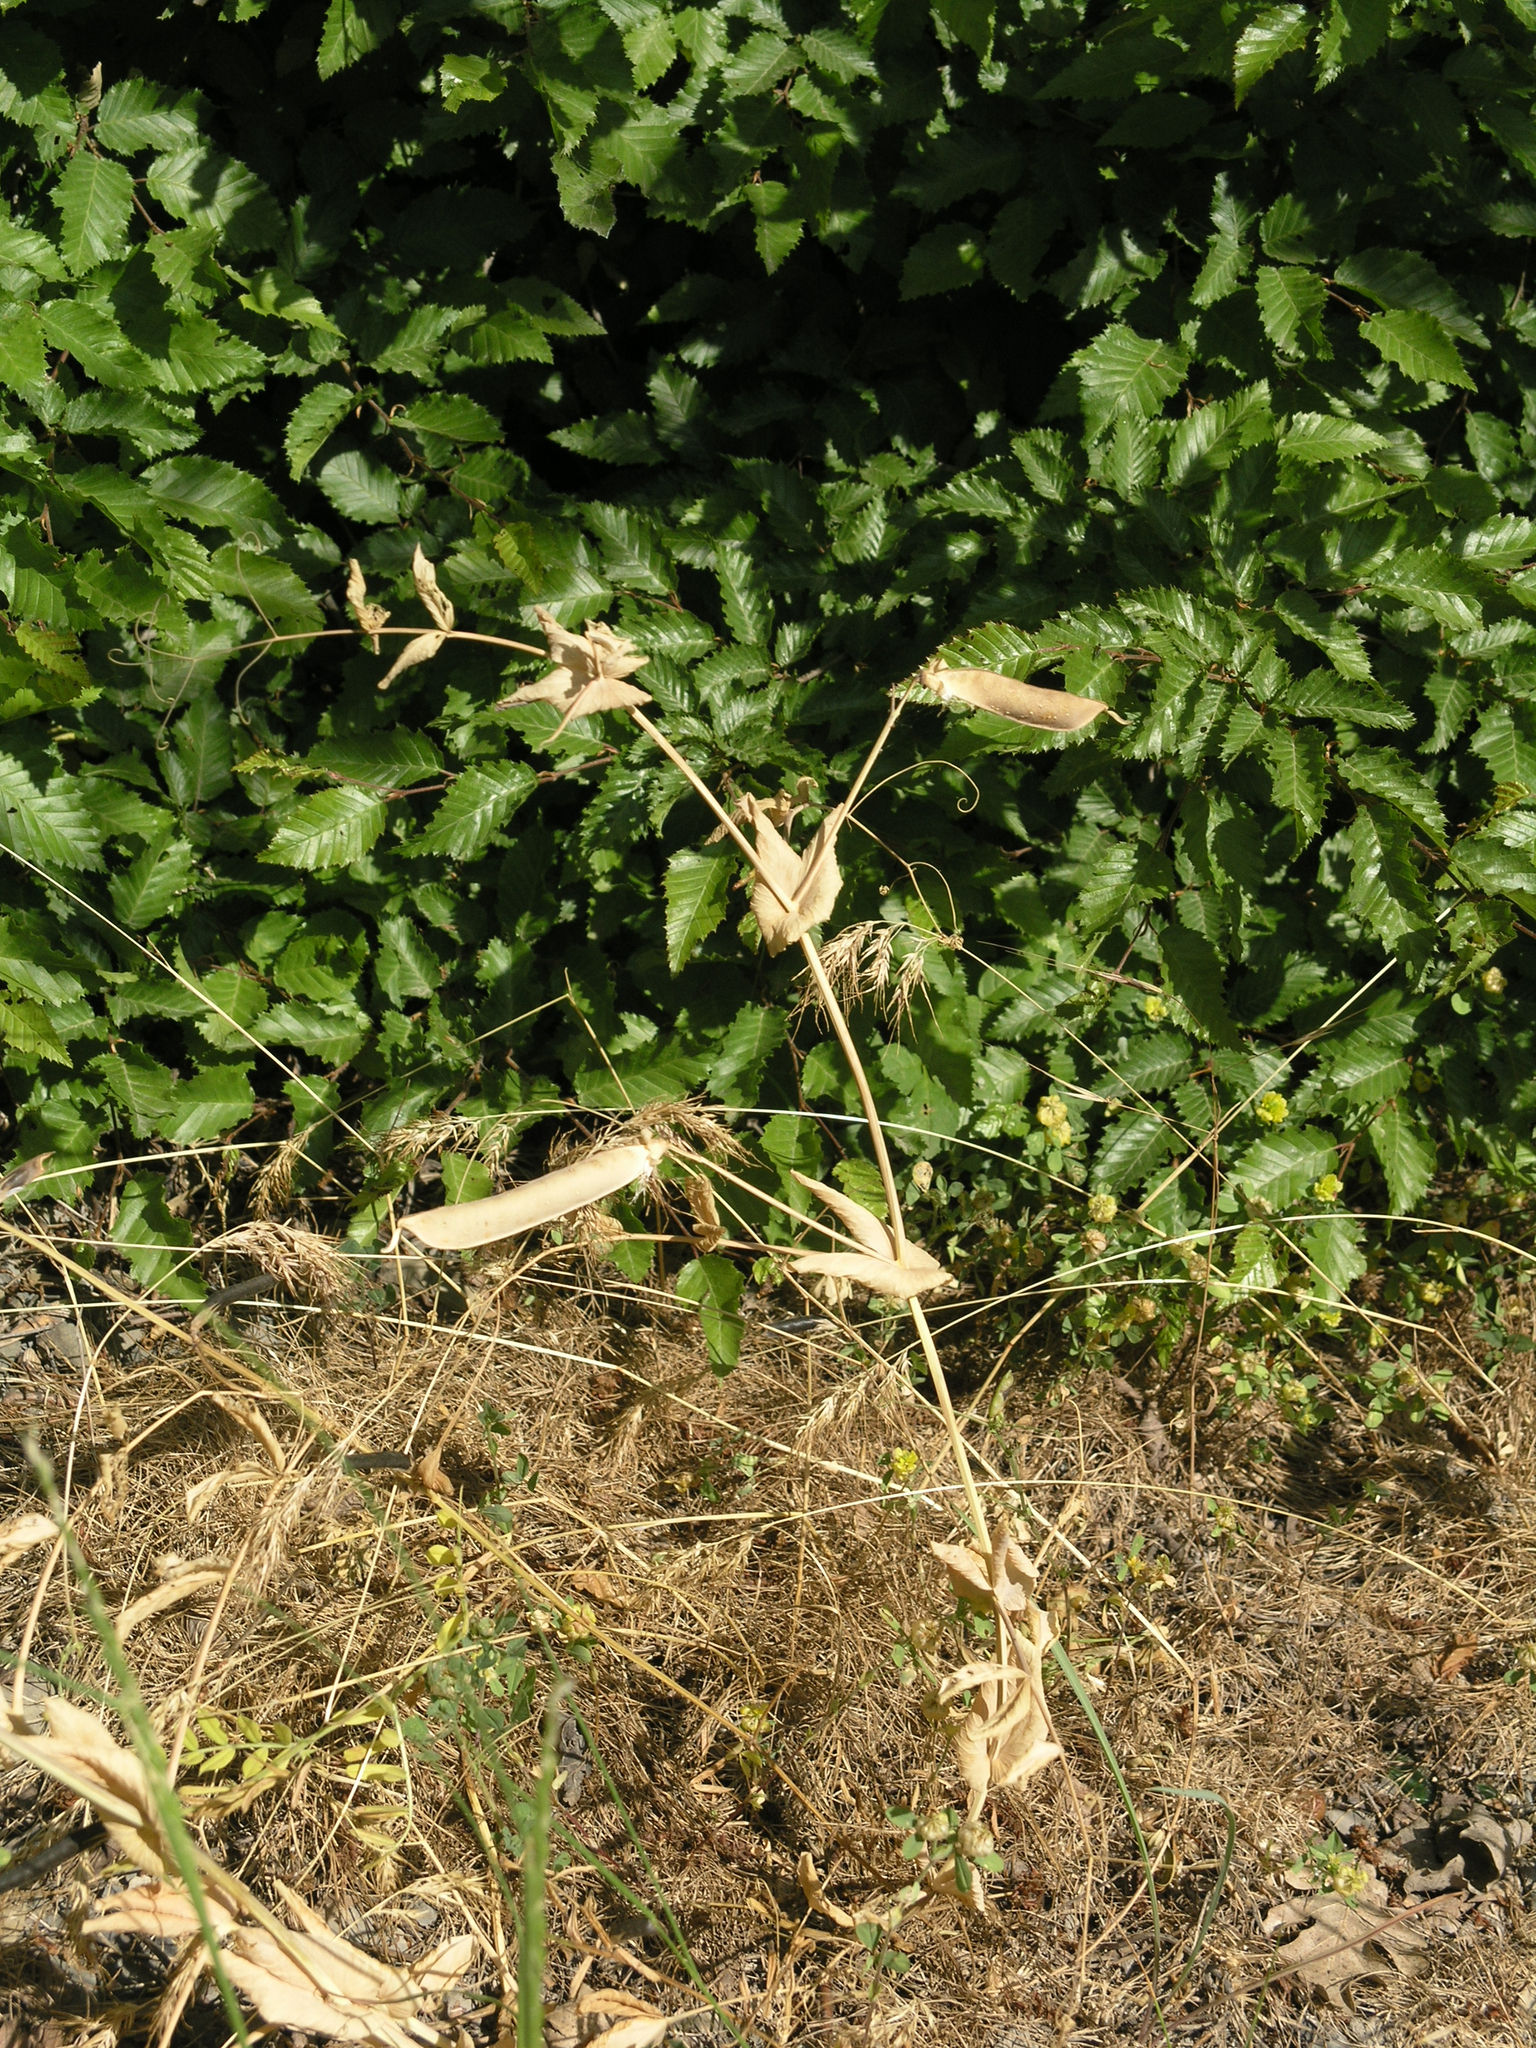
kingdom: Plantae
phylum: Tracheophyta
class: Magnoliopsida
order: Fagales
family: Betulaceae
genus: Carpinus
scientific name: Carpinus orientalis
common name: Eastern hornbeam
